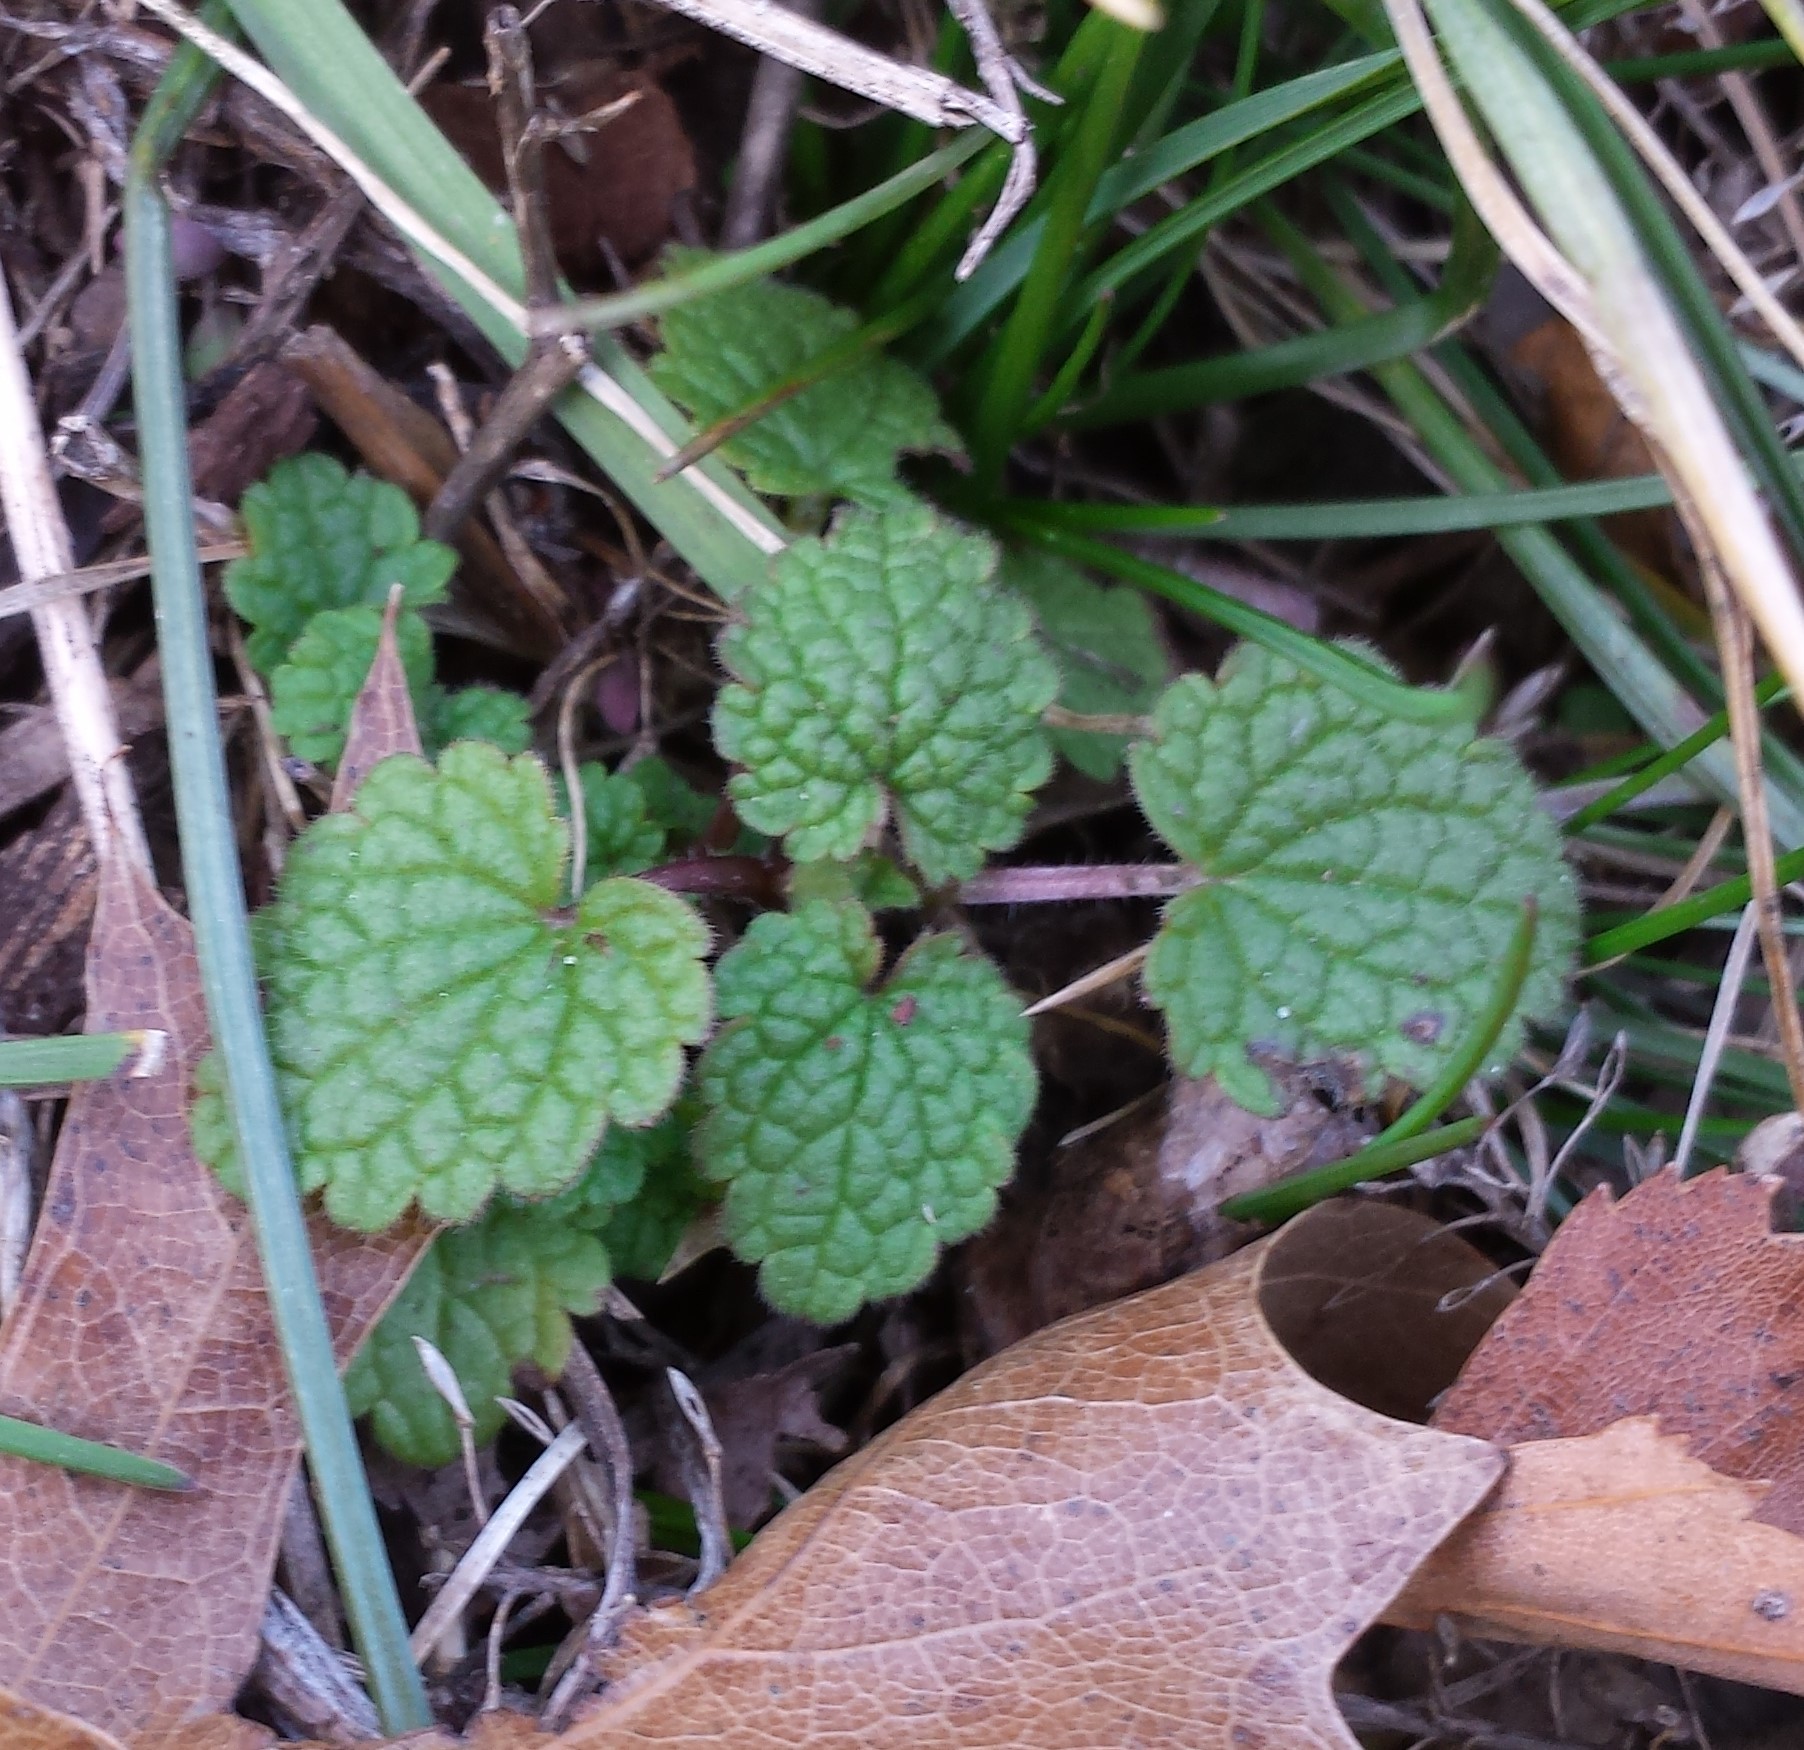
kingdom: Plantae
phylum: Tracheophyta
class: Magnoliopsida
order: Lamiales
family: Lamiaceae
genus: Lamium
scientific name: Lamium purpureum
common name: Red dead-nettle
